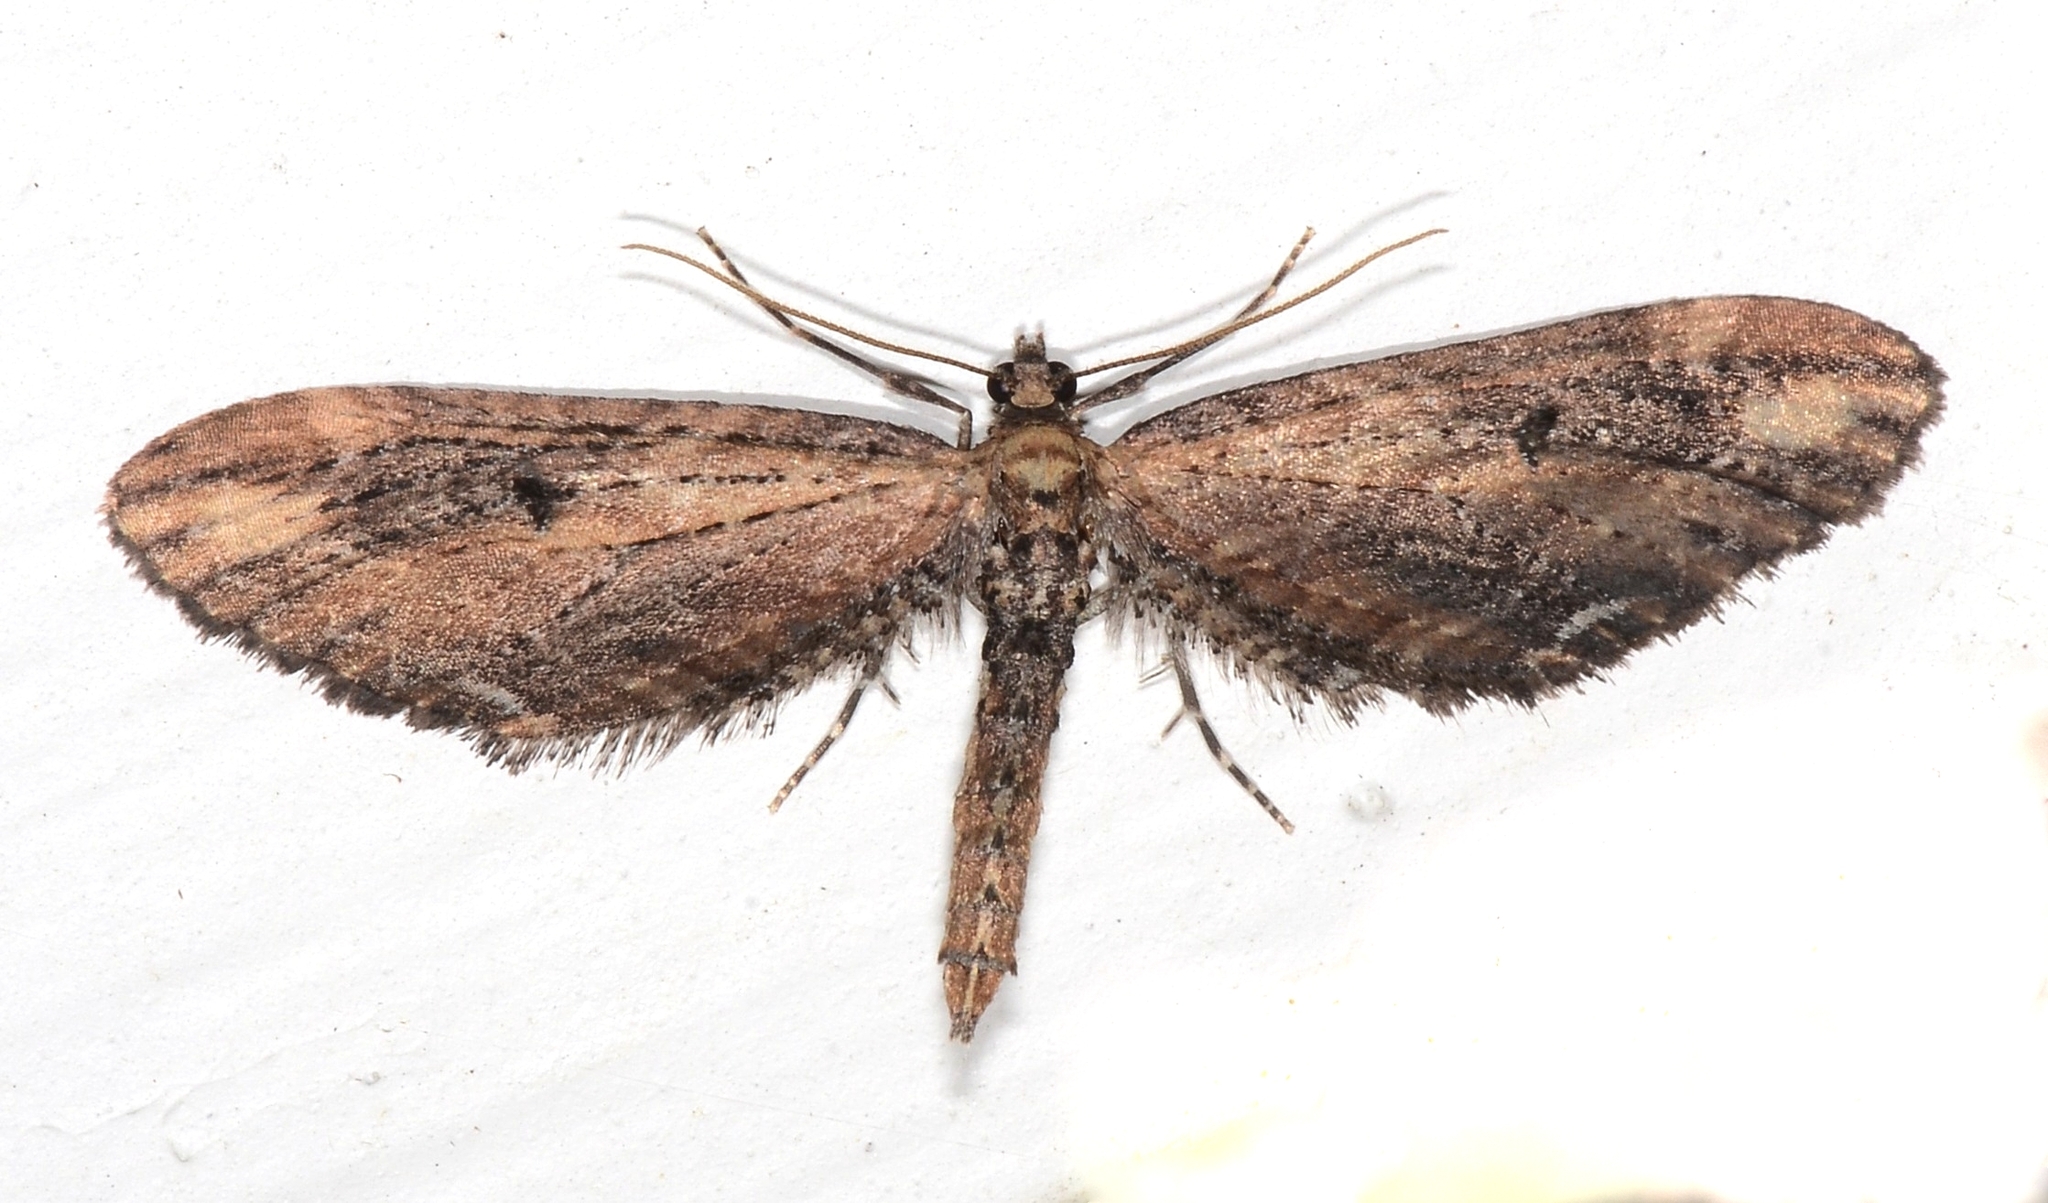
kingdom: Animalia
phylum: Arthropoda
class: Insecta
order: Lepidoptera
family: Geometridae
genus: Eupithecia
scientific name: Eupithecia subapicata
